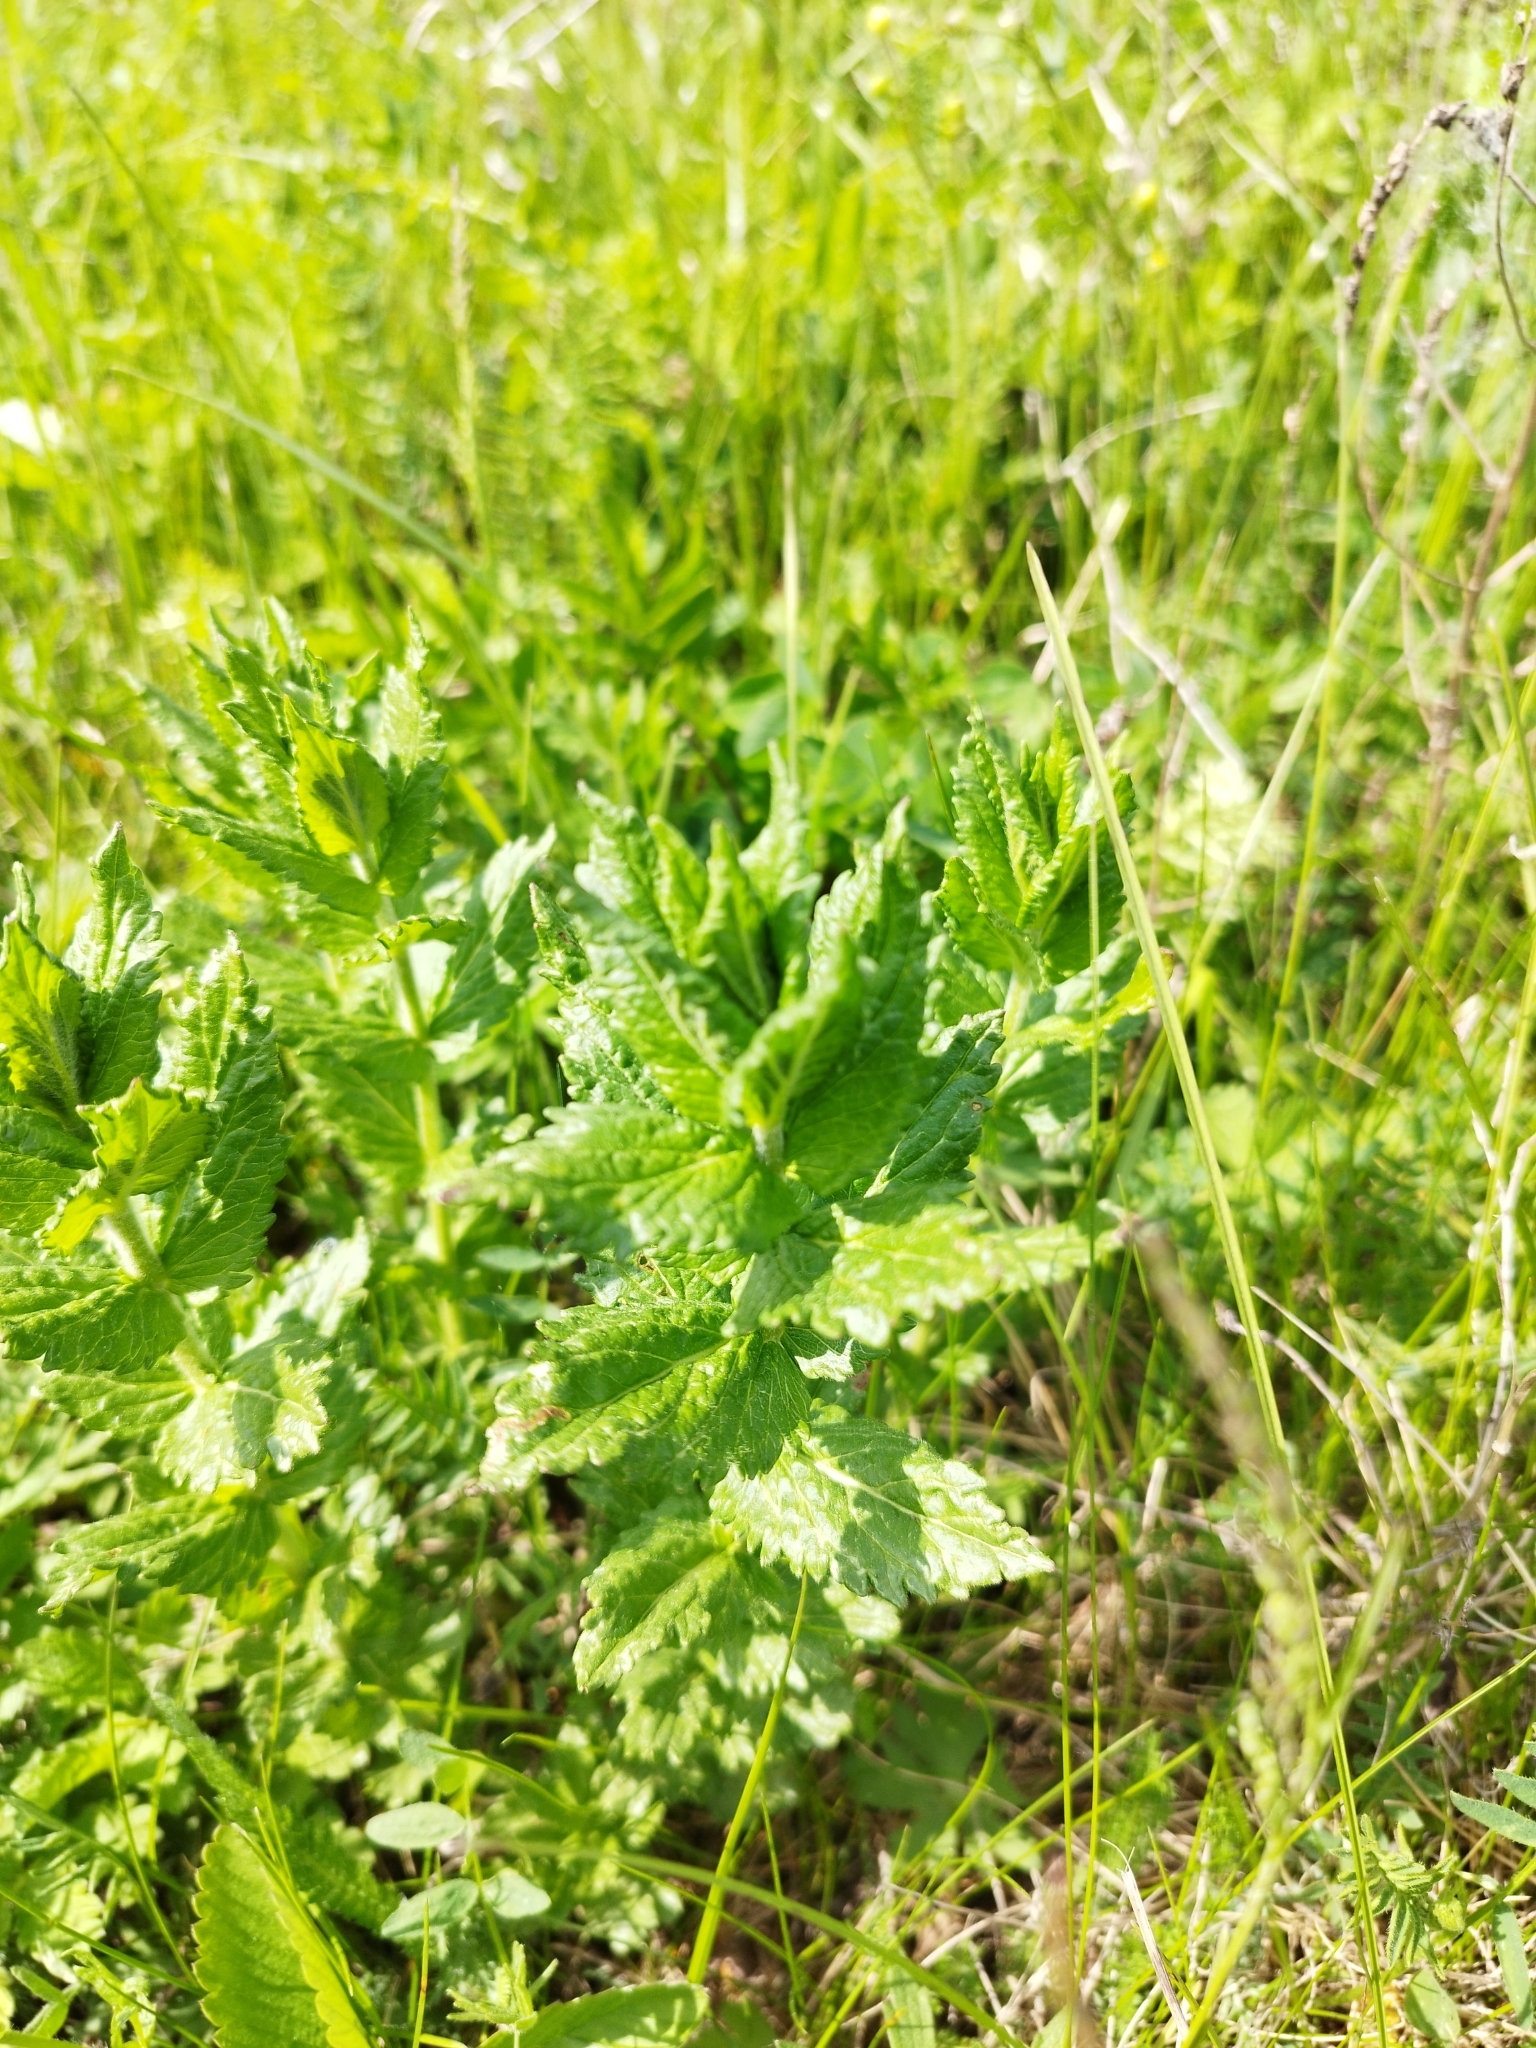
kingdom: Plantae
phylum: Tracheophyta
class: Magnoliopsida
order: Lamiales
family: Plantaginaceae
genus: Veronica
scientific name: Veronica teucrium
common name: Large speedwell
